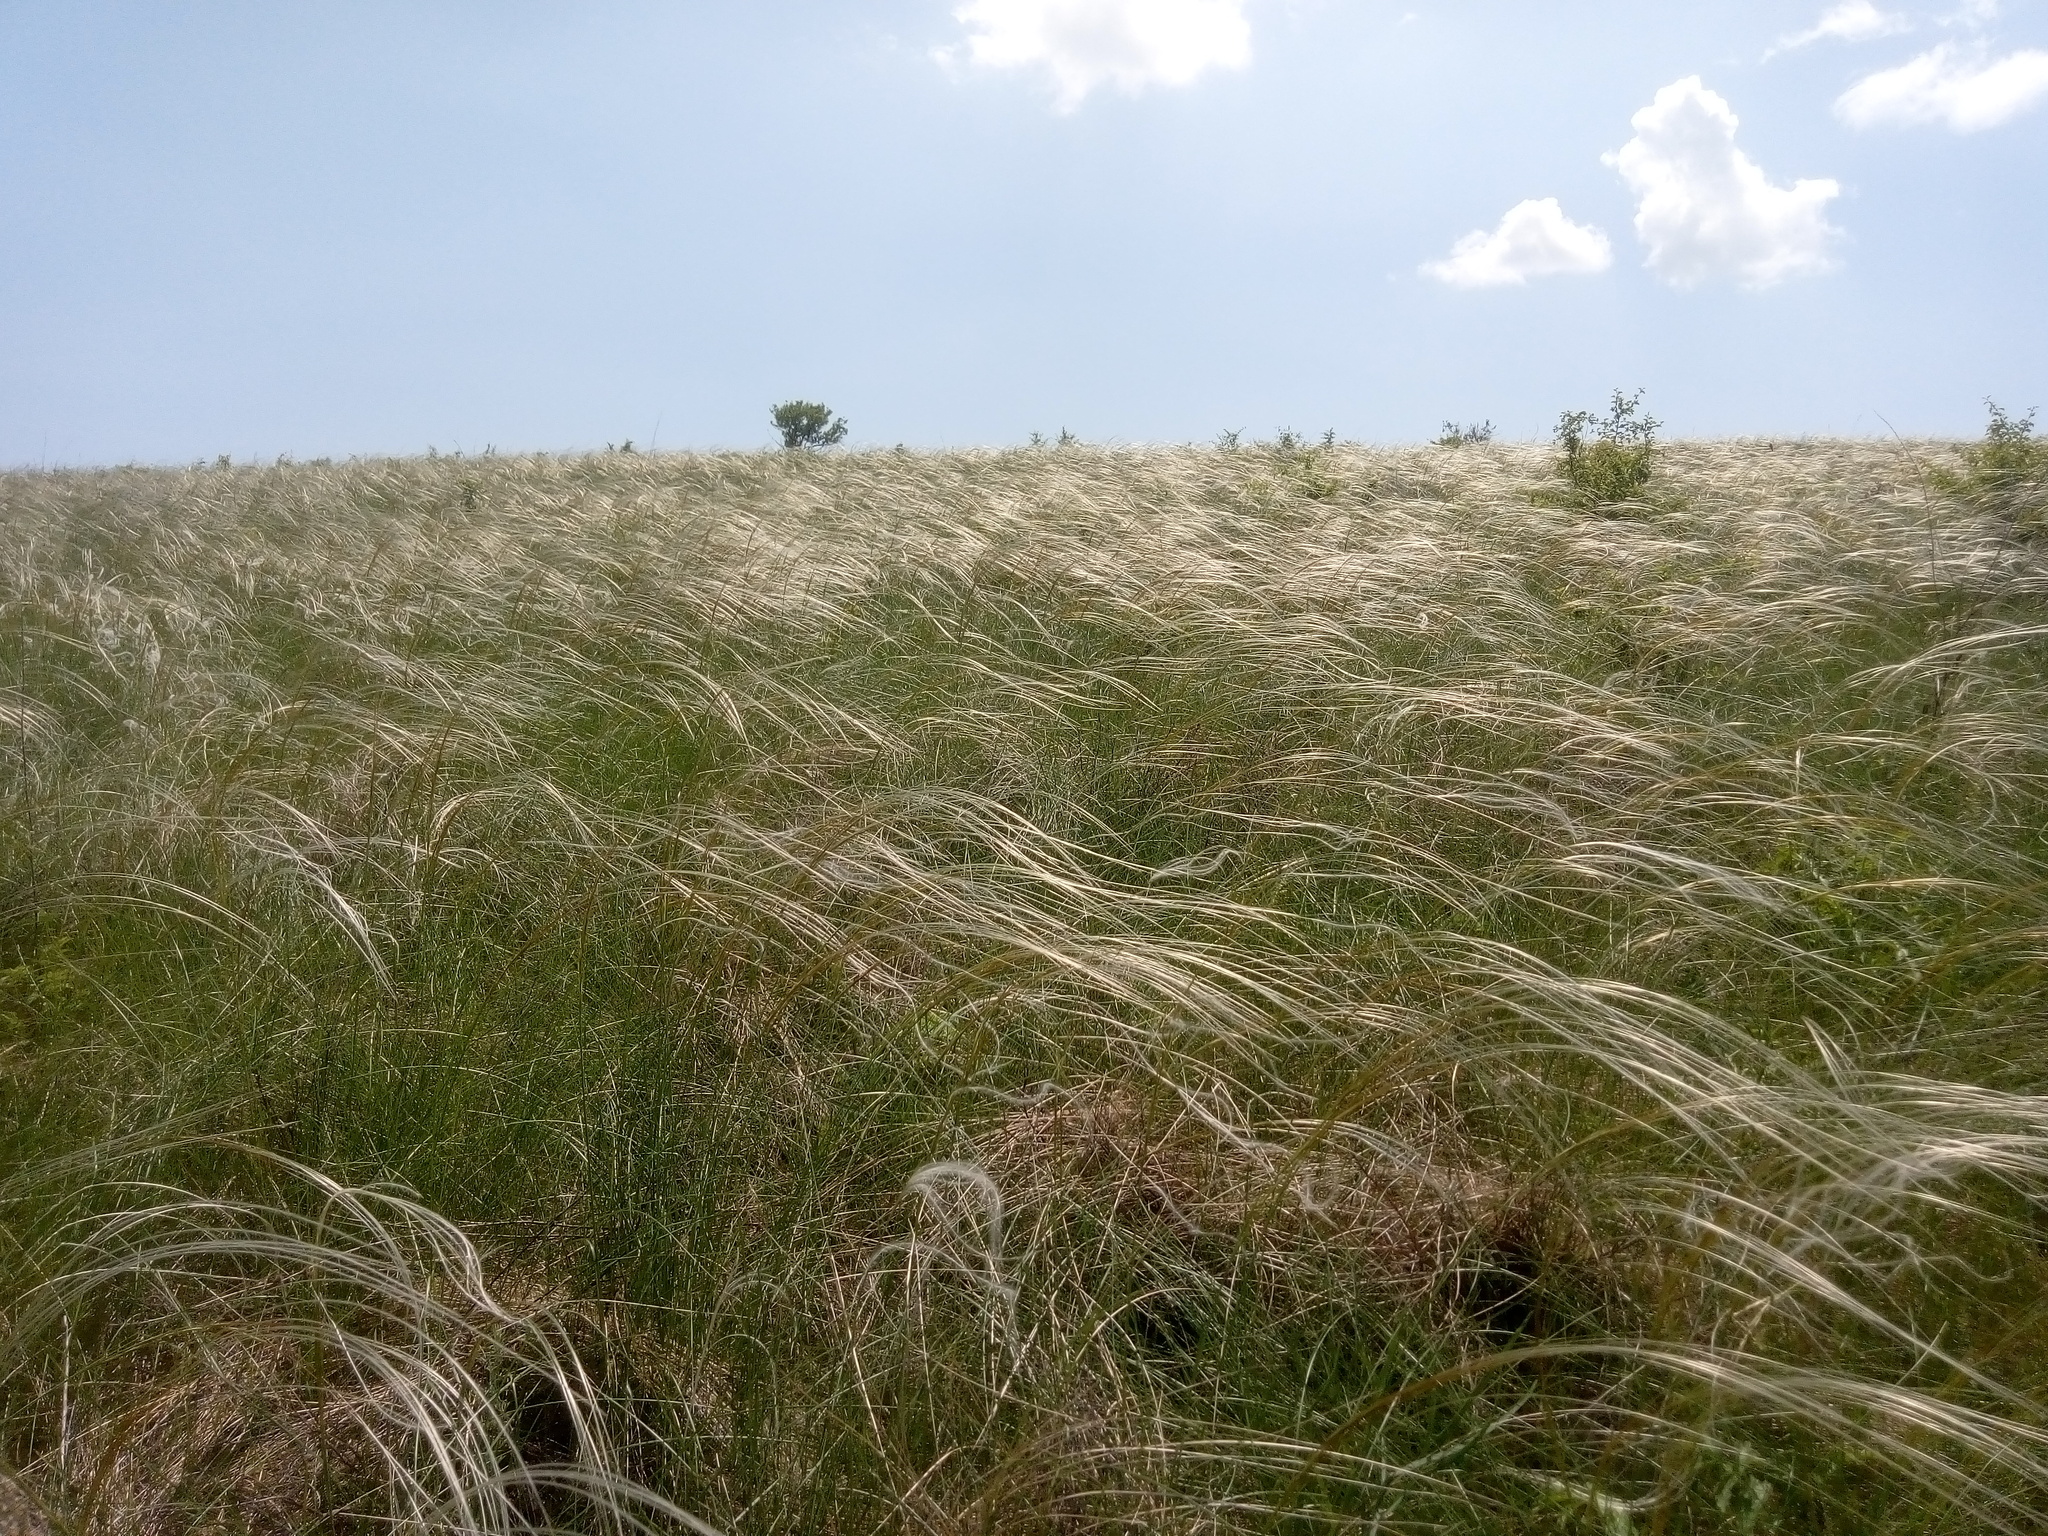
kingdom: Plantae
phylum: Tracheophyta
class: Liliopsida
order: Poales
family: Poaceae
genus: Stipa
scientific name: Stipa pennata
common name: European feather grass
